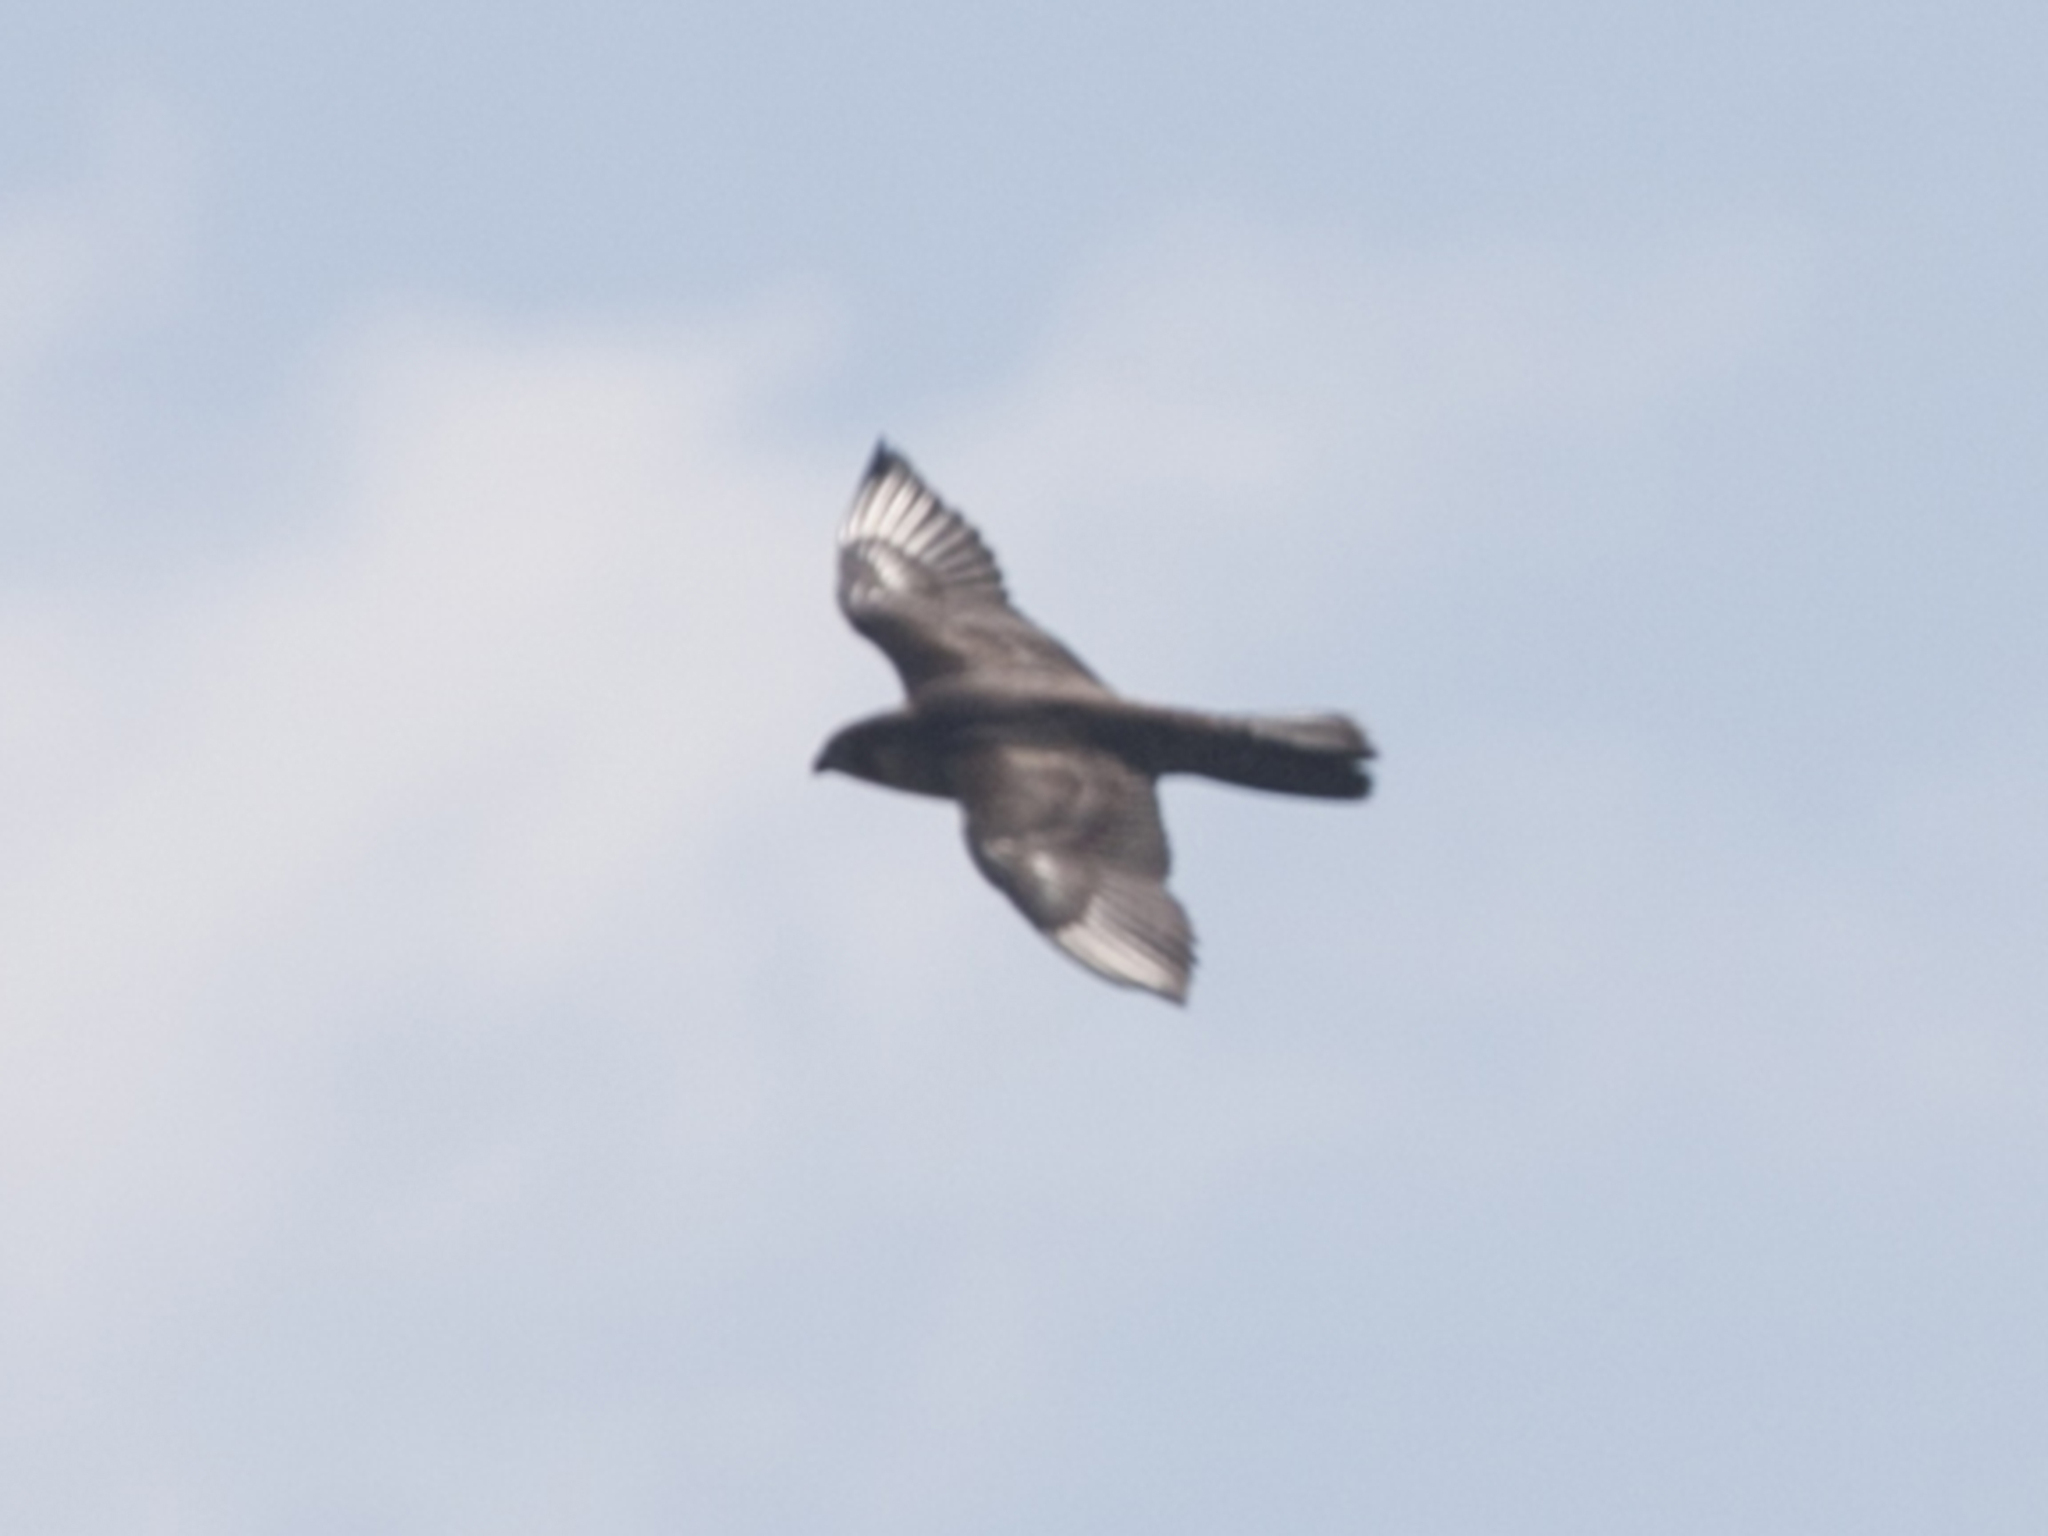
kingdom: Animalia
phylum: Chordata
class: Aves
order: Falconiformes
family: Falconidae
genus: Falco
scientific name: Falco peregrinus
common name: Peregrine falcon
